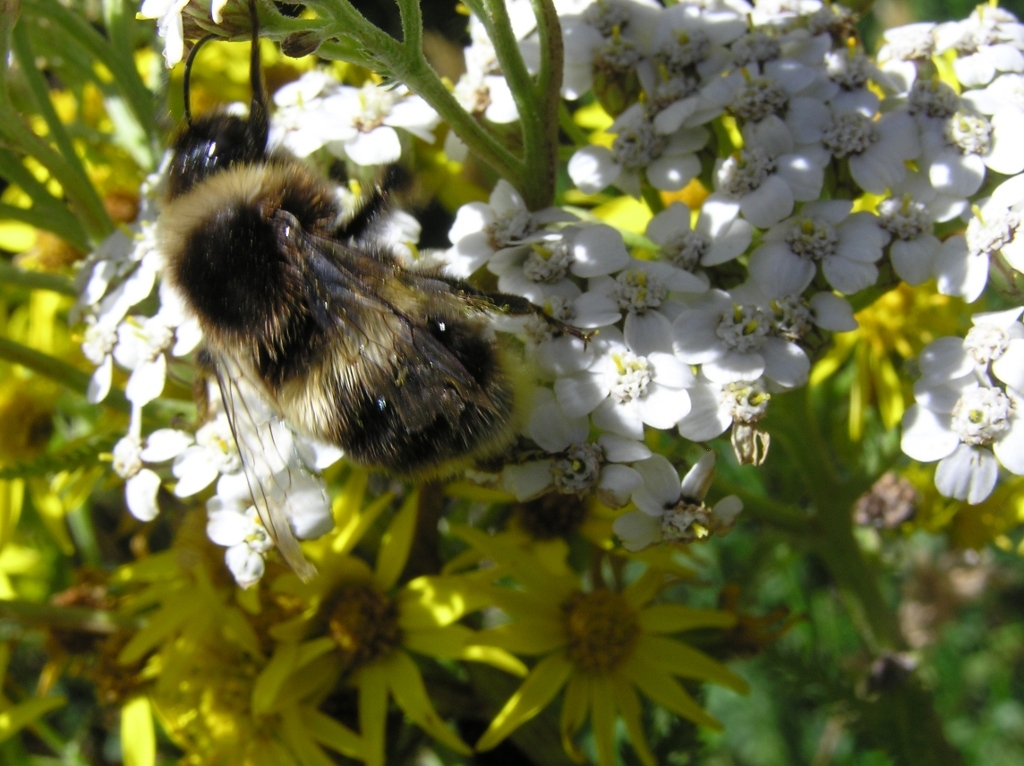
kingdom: Animalia
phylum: Arthropoda
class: Insecta
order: Hymenoptera
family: Apidae
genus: Bombus
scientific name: Bombus ruderatus
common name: Large garden bumblebee
